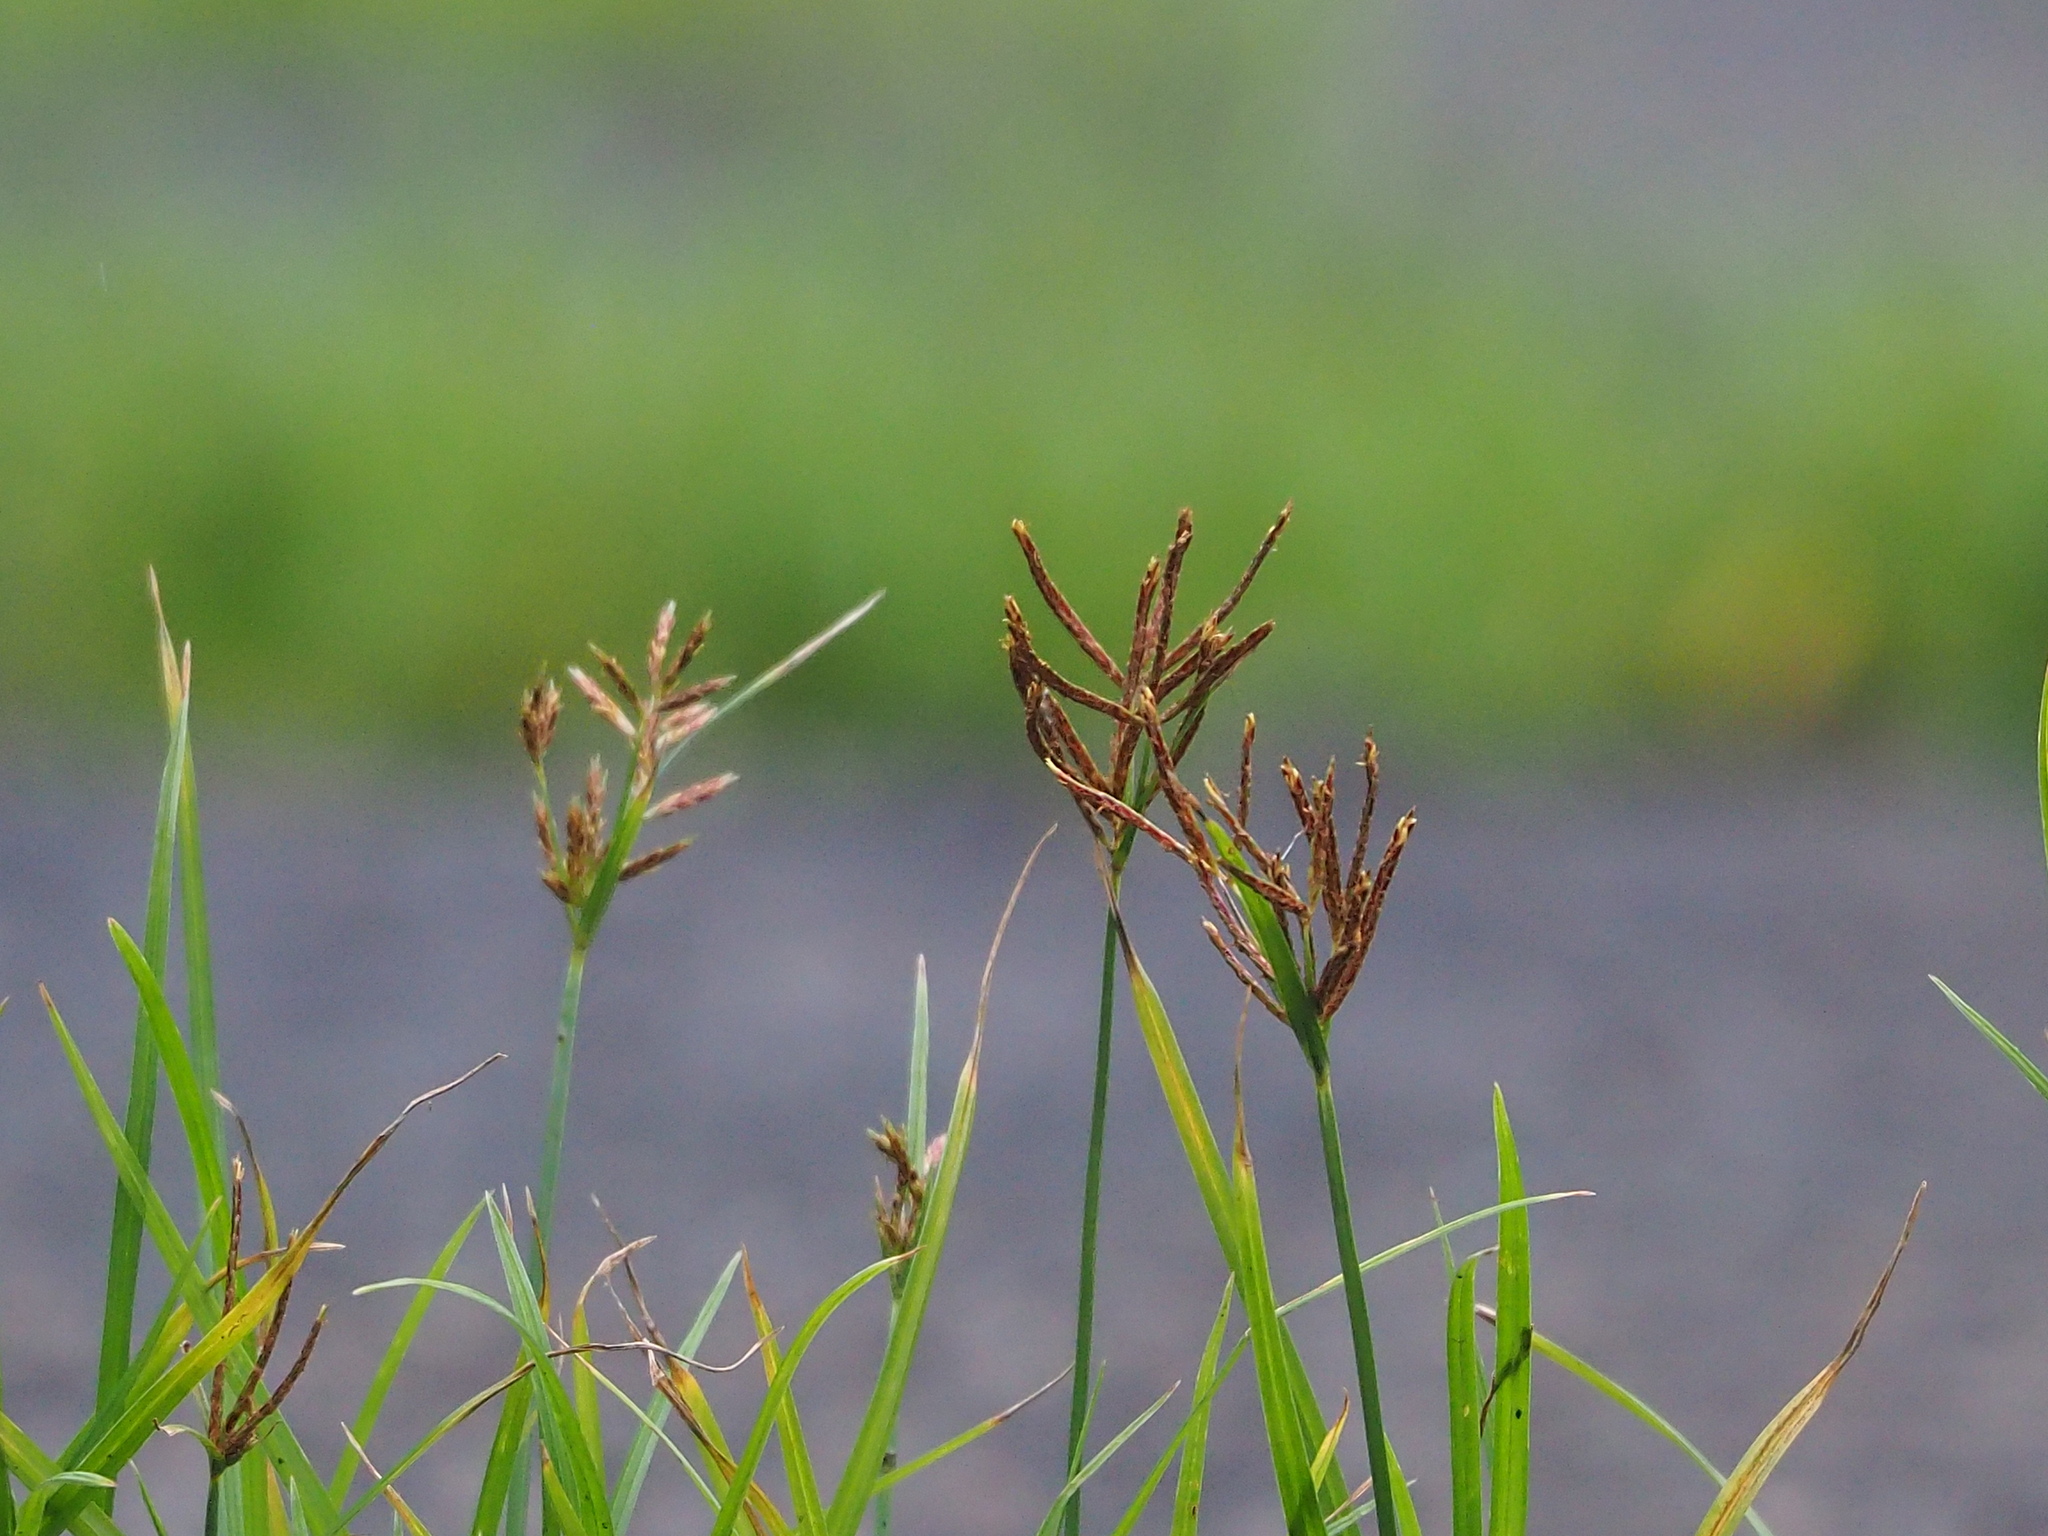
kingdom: Plantae
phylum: Tracheophyta
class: Liliopsida
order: Poales
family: Cyperaceae
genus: Cyperus
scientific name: Cyperus rotundus
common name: Nutgrass
